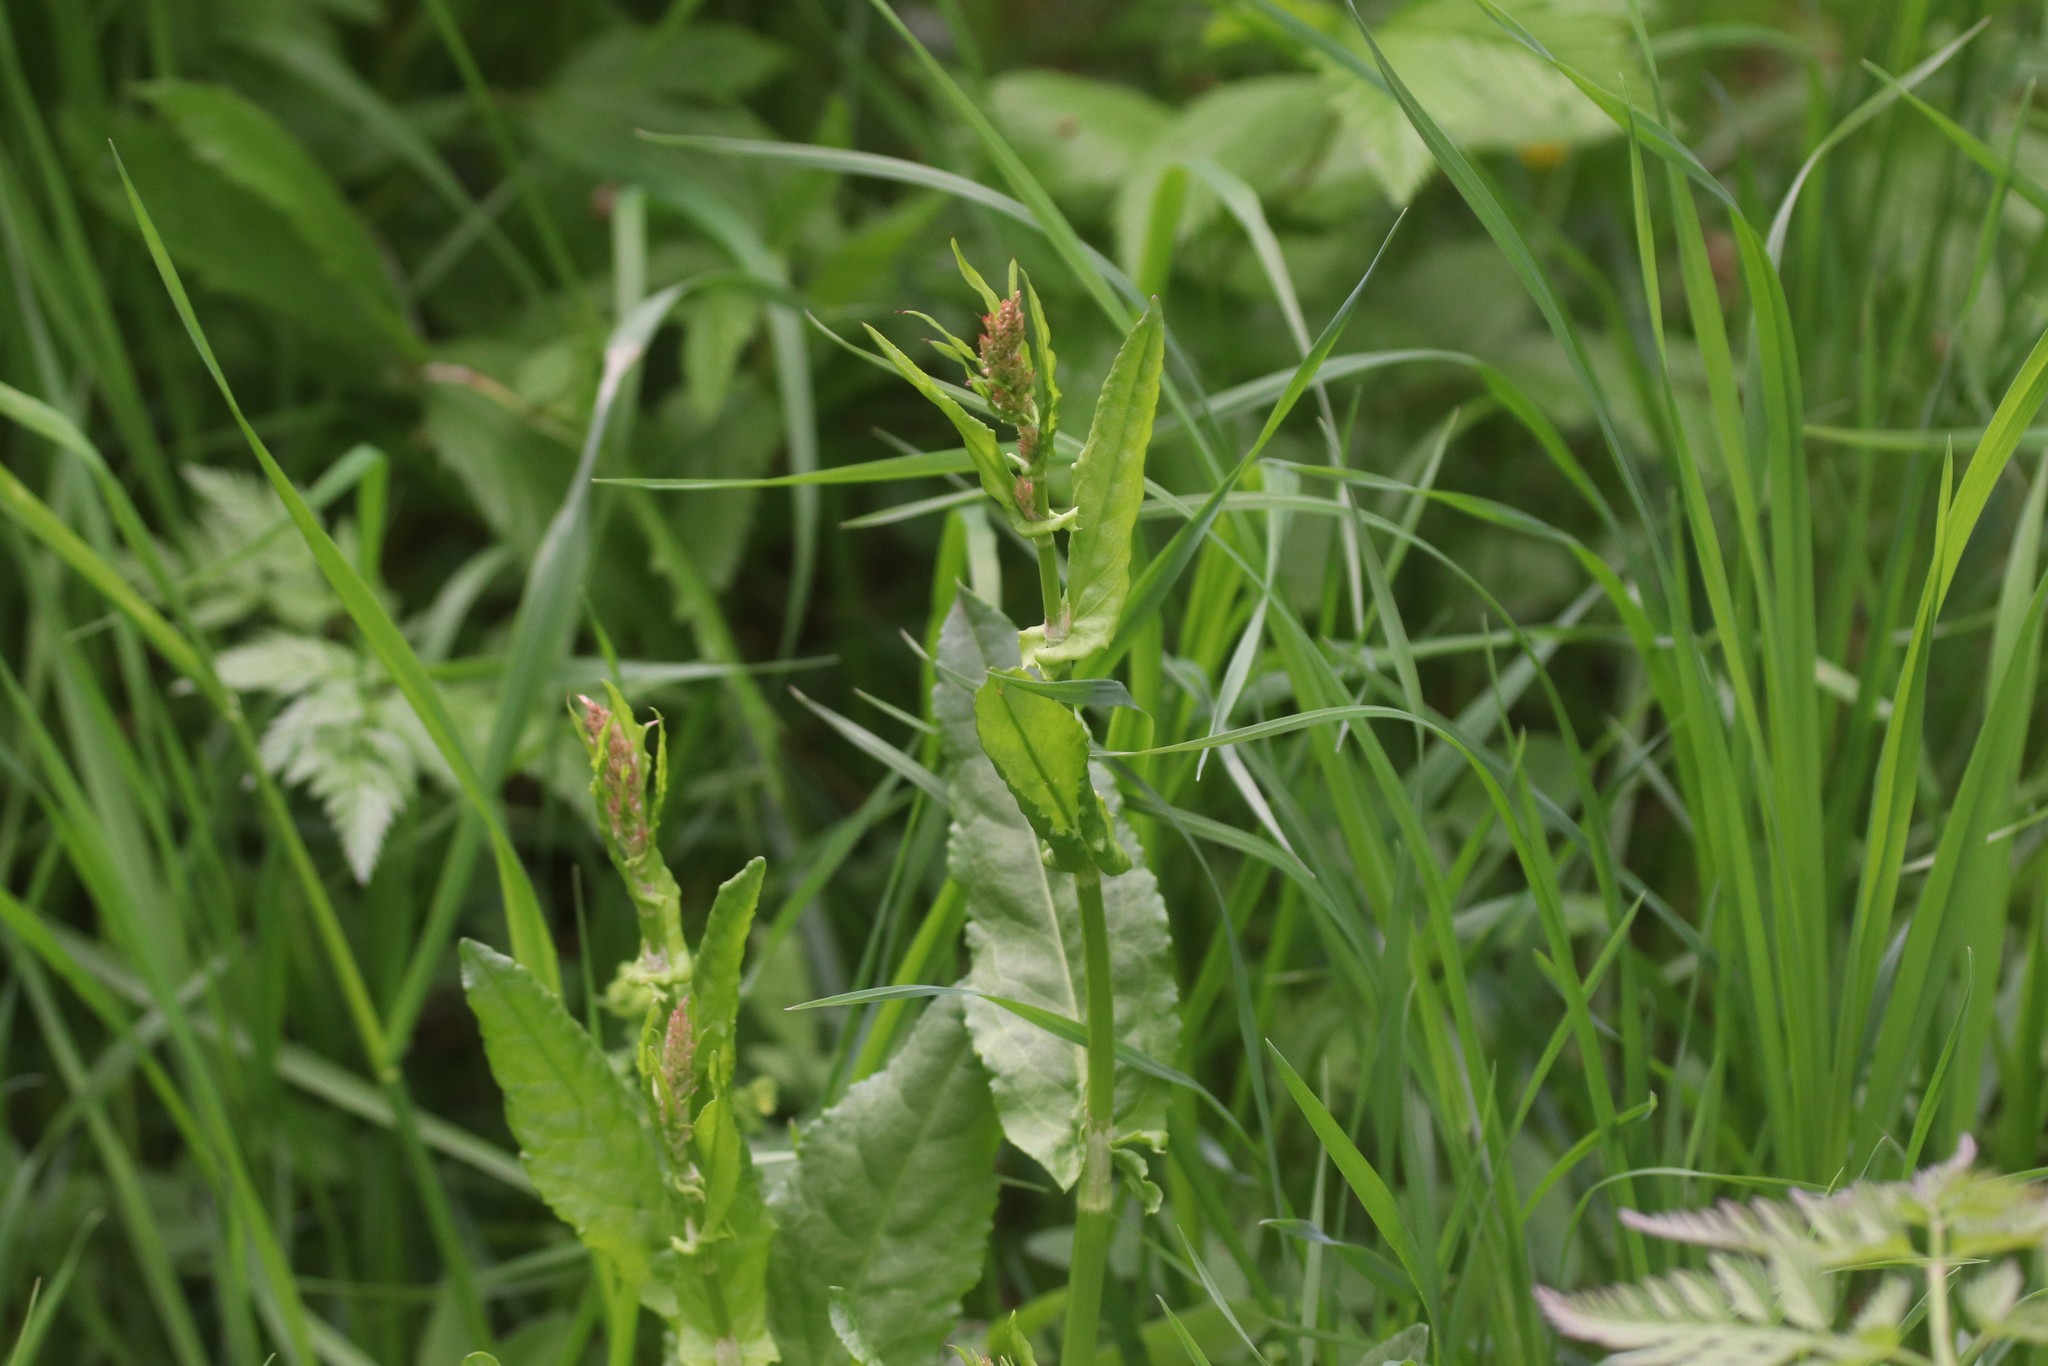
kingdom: Plantae
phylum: Tracheophyta
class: Magnoliopsida
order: Caryophyllales
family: Polygonaceae
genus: Rumex
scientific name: Rumex acetosa
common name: Garden sorrel
